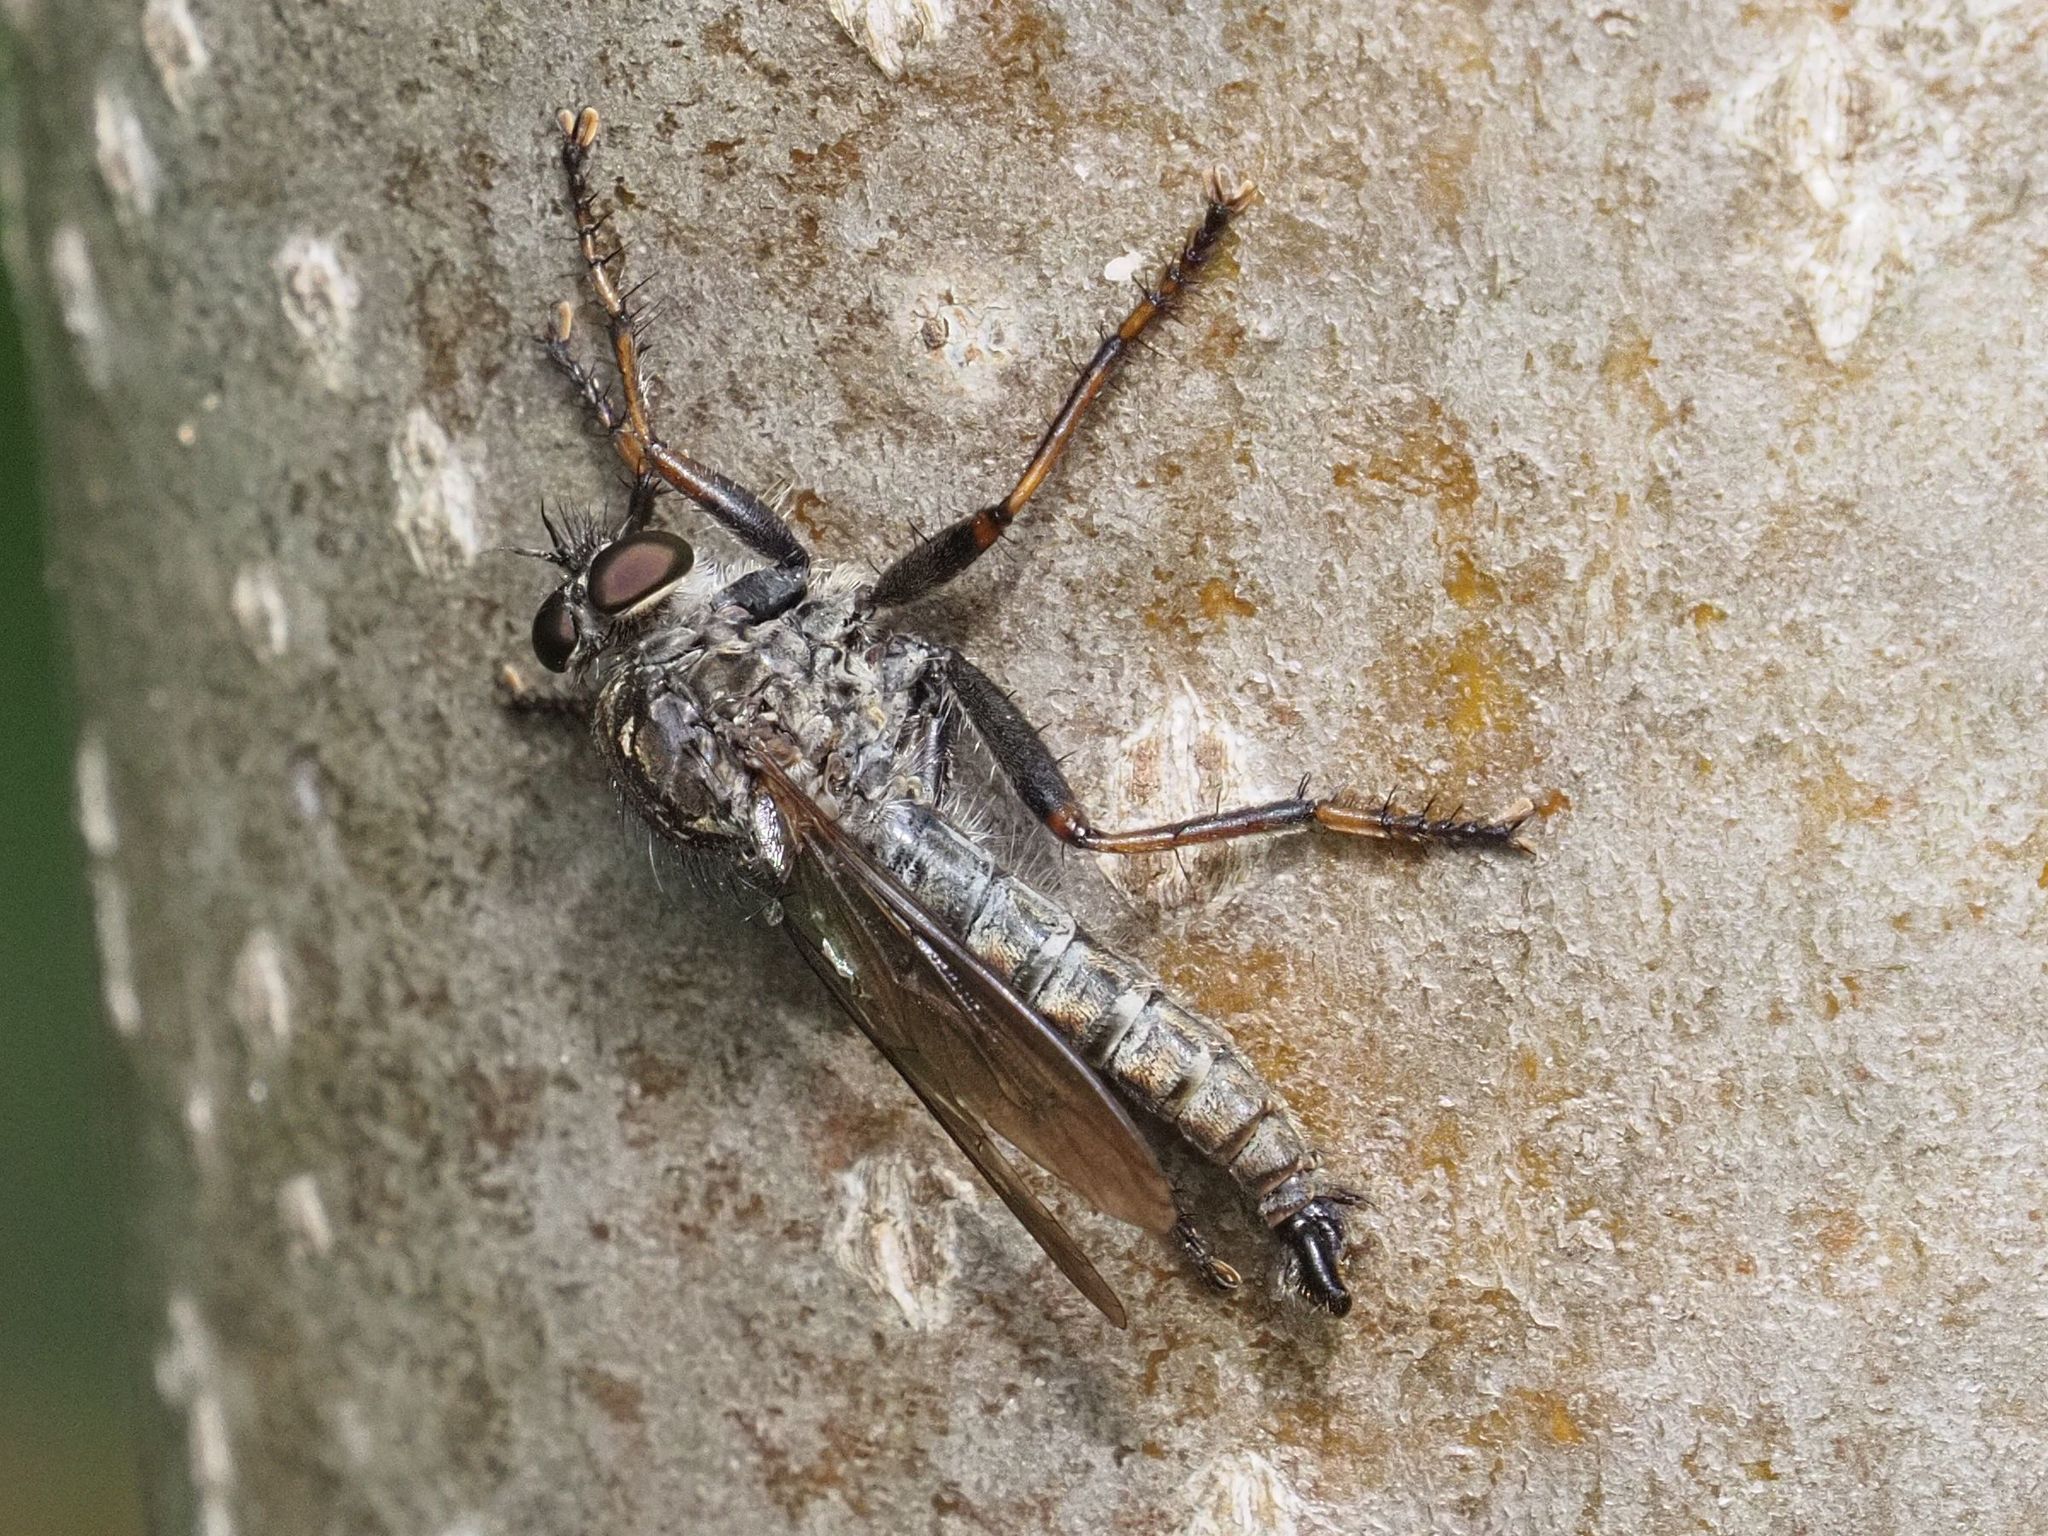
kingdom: Animalia
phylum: Arthropoda
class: Insecta
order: Diptera
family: Asilidae
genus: Machimus
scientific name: Machimus atricapillus
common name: Kite-tailed robberfly
